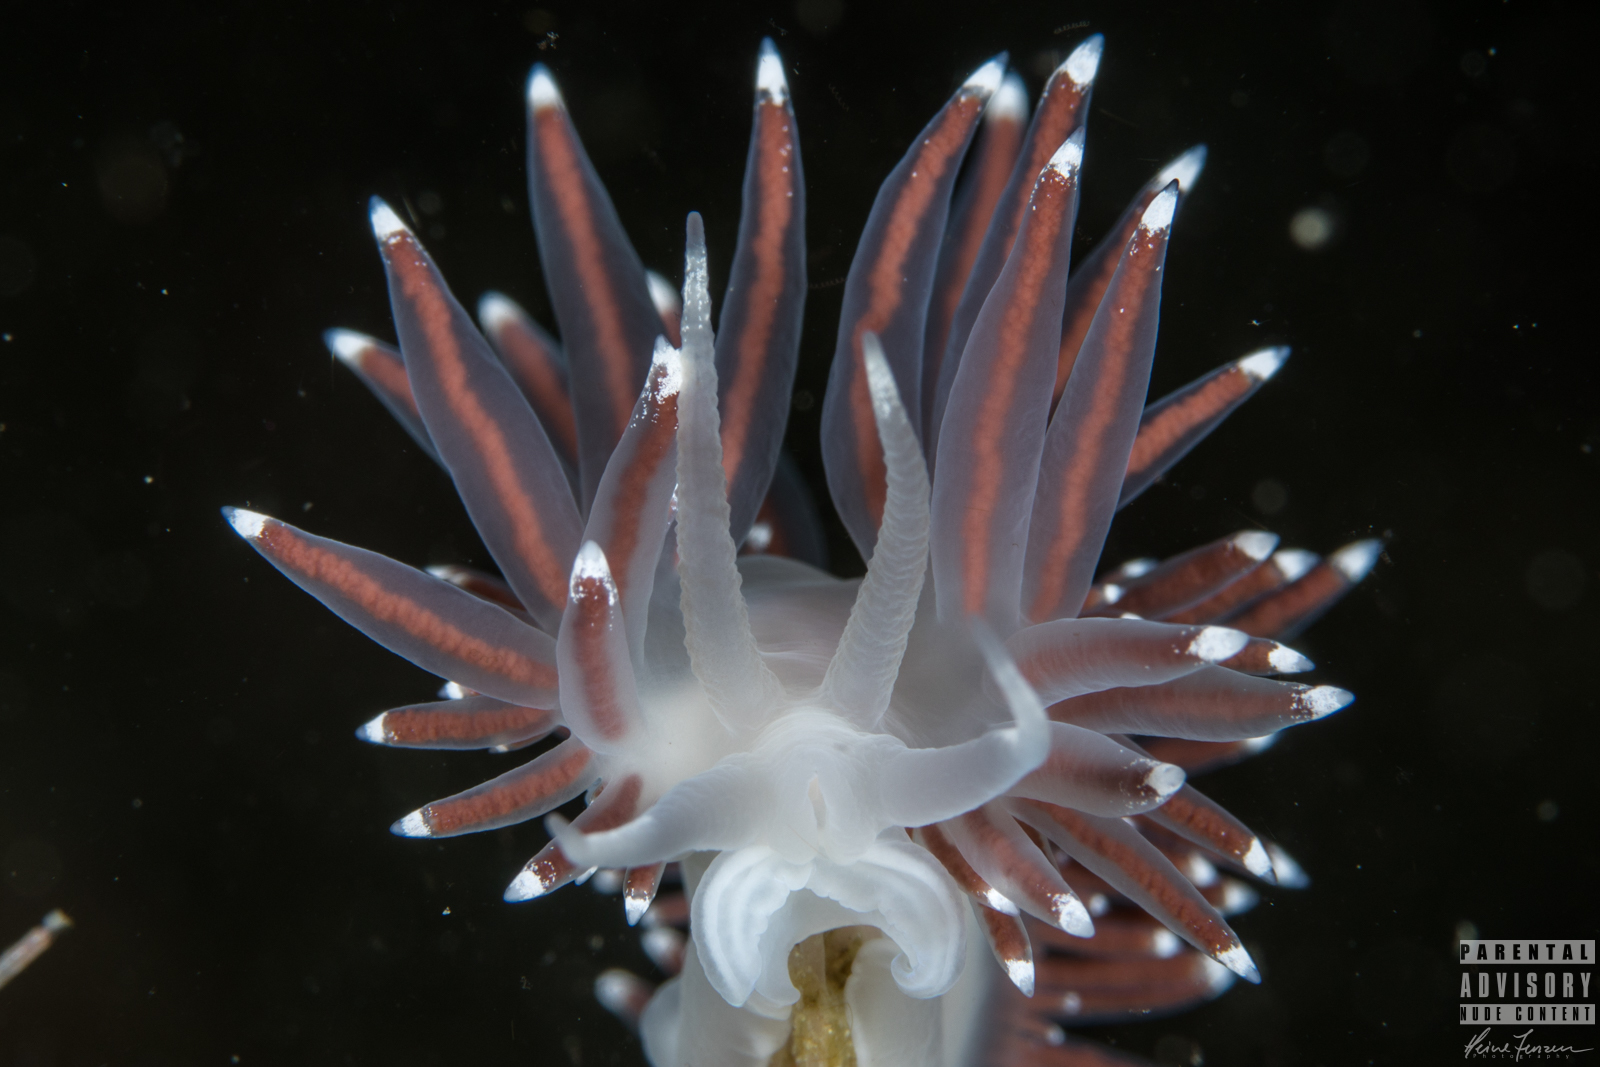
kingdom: Animalia
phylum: Mollusca
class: Gastropoda
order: Nudibranchia
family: Coryphellidae
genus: Coryphella
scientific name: Coryphella browni
